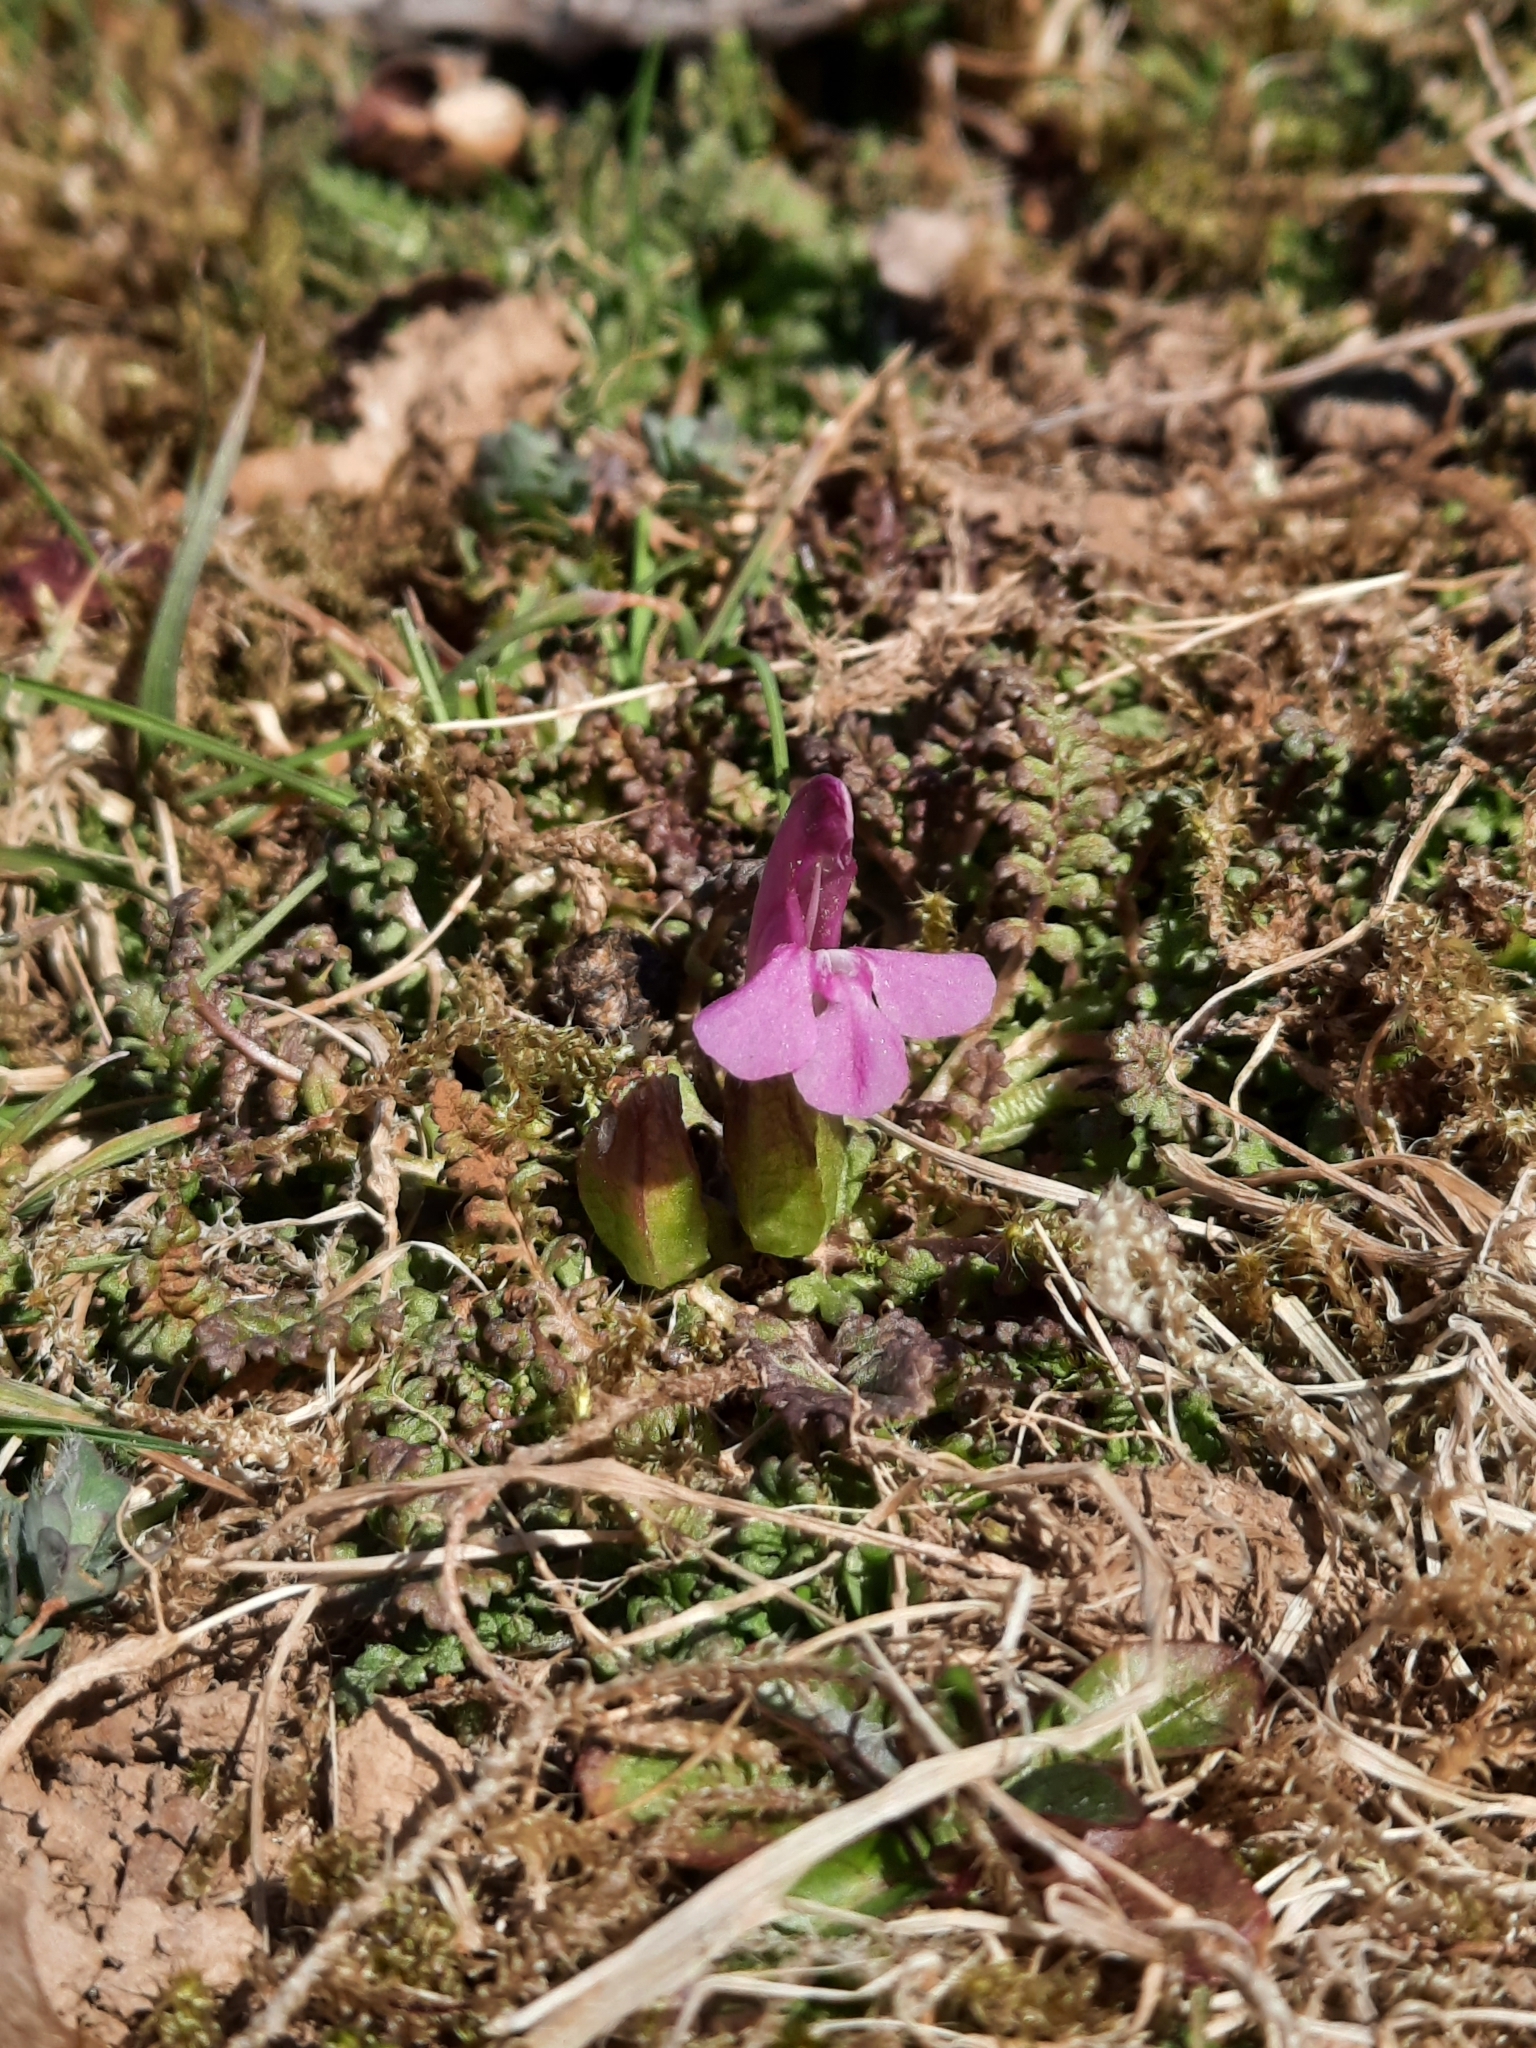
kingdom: Plantae
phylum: Tracheophyta
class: Magnoliopsida
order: Lamiales
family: Orobanchaceae
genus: Pedicularis
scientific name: Pedicularis sylvatica
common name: Lousewort
